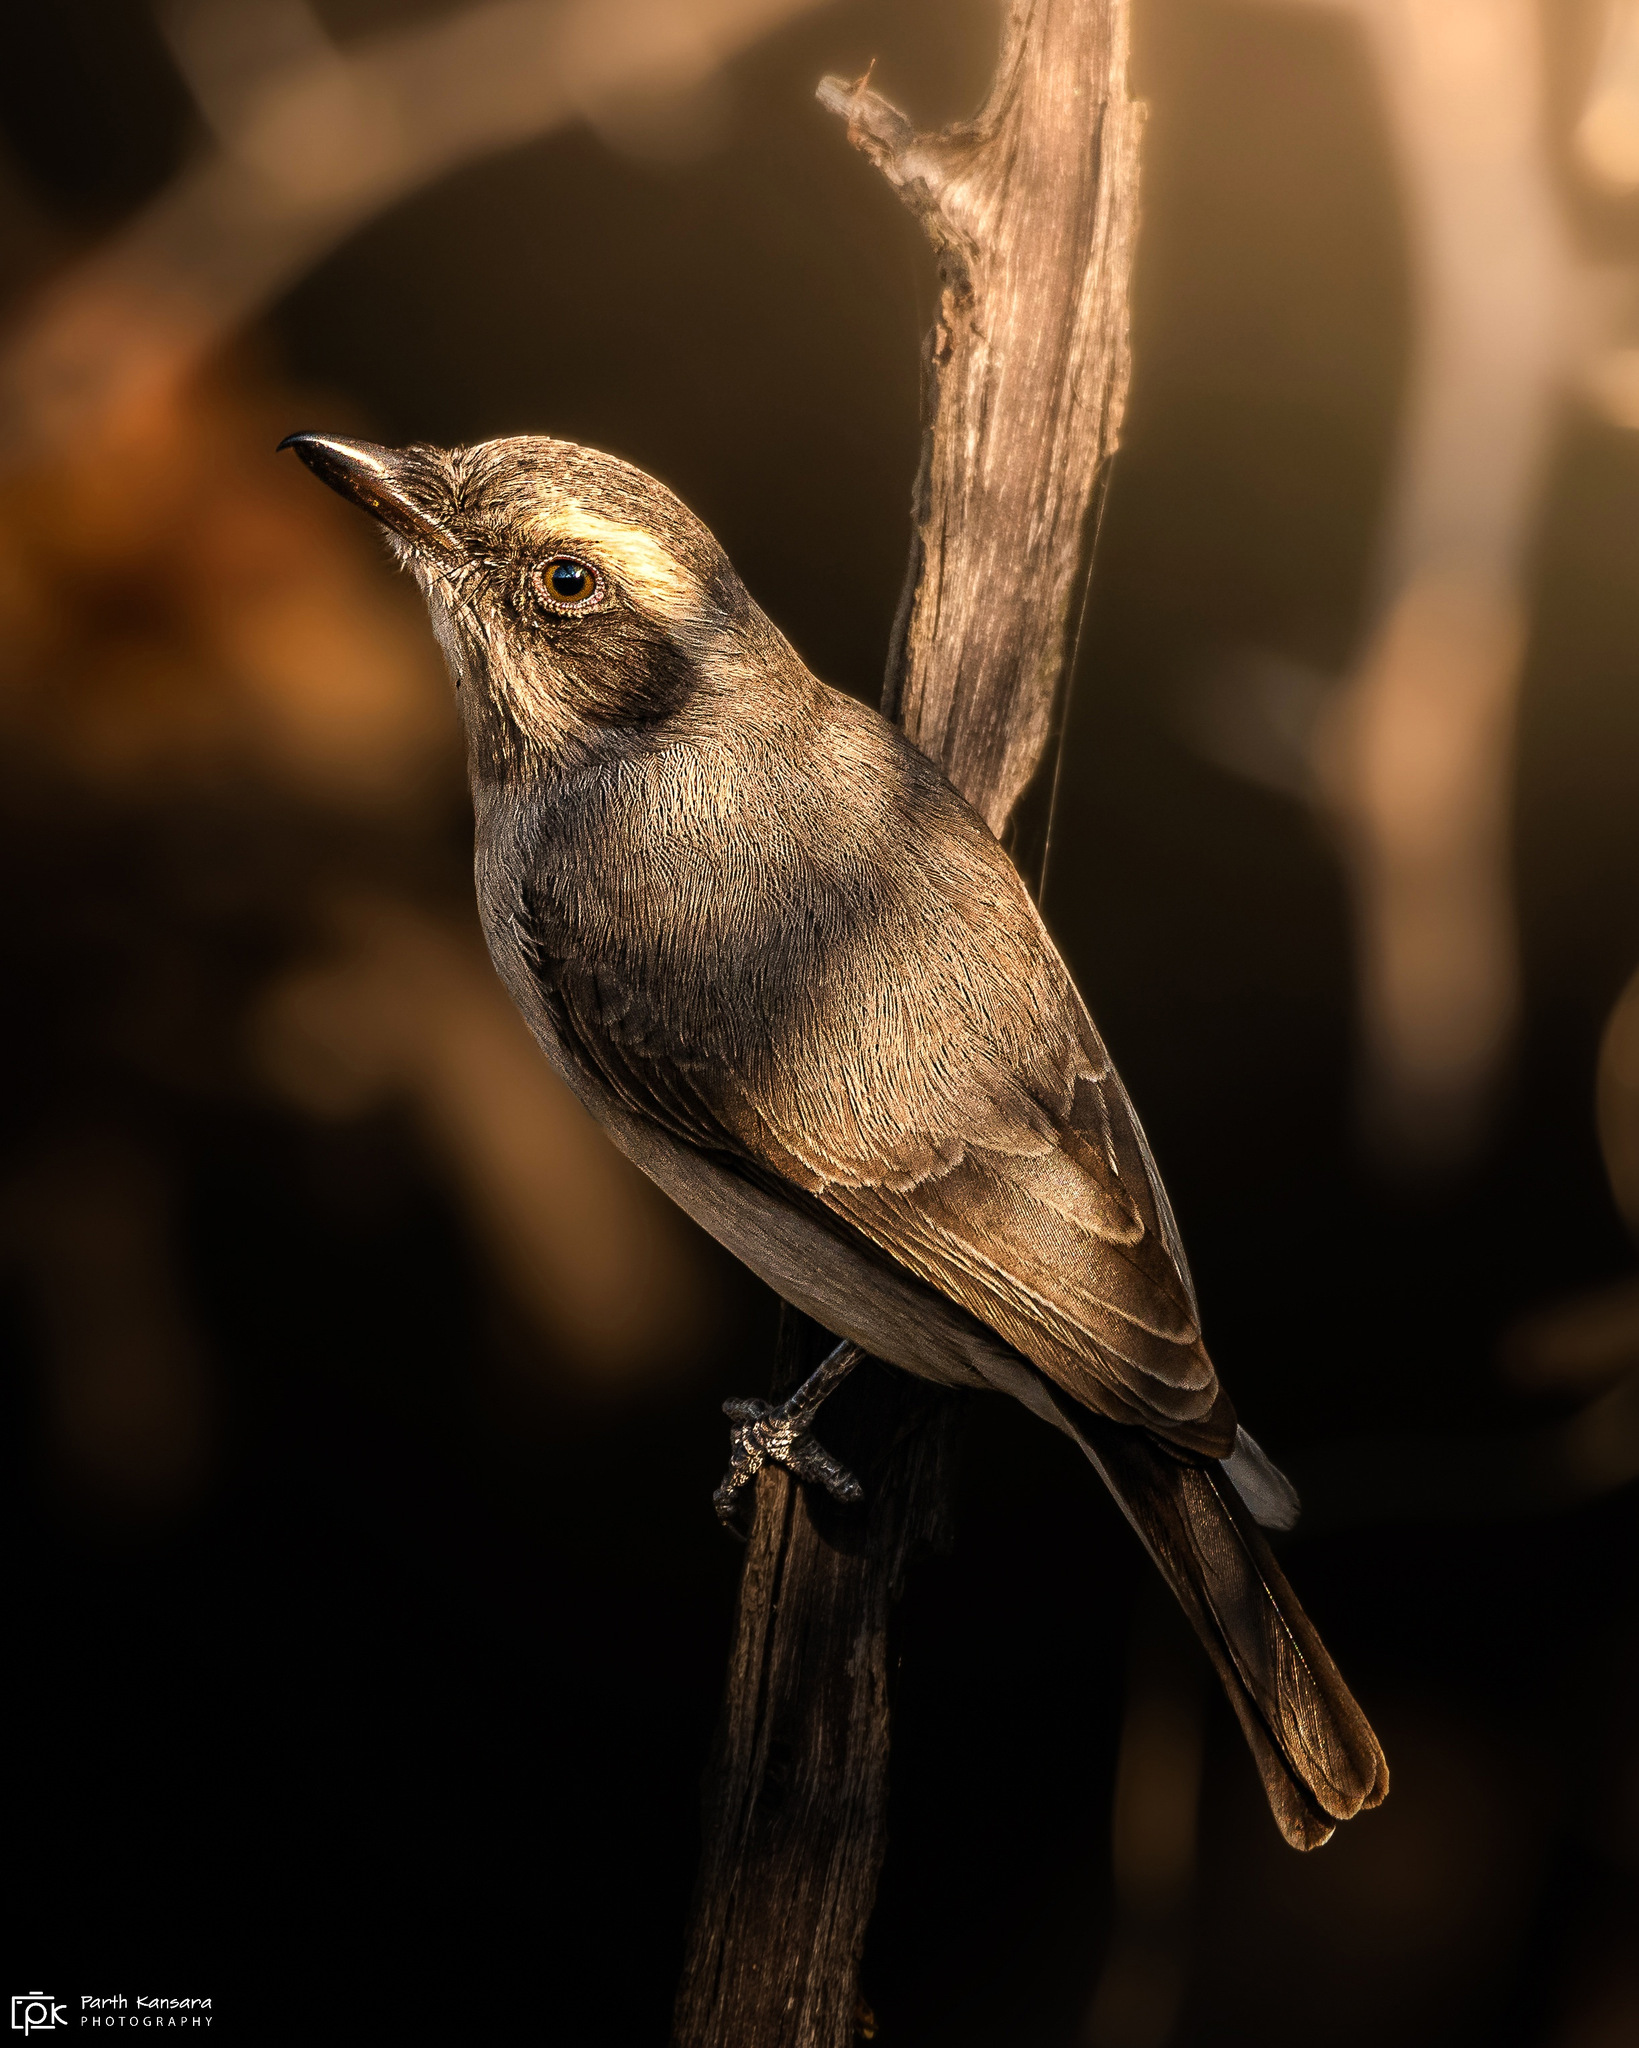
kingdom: Animalia
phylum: Chordata
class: Aves
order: Passeriformes
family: Tephrodornithidae
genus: Tephrodornis
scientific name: Tephrodornis pondicerianus
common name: Common woodshrike
